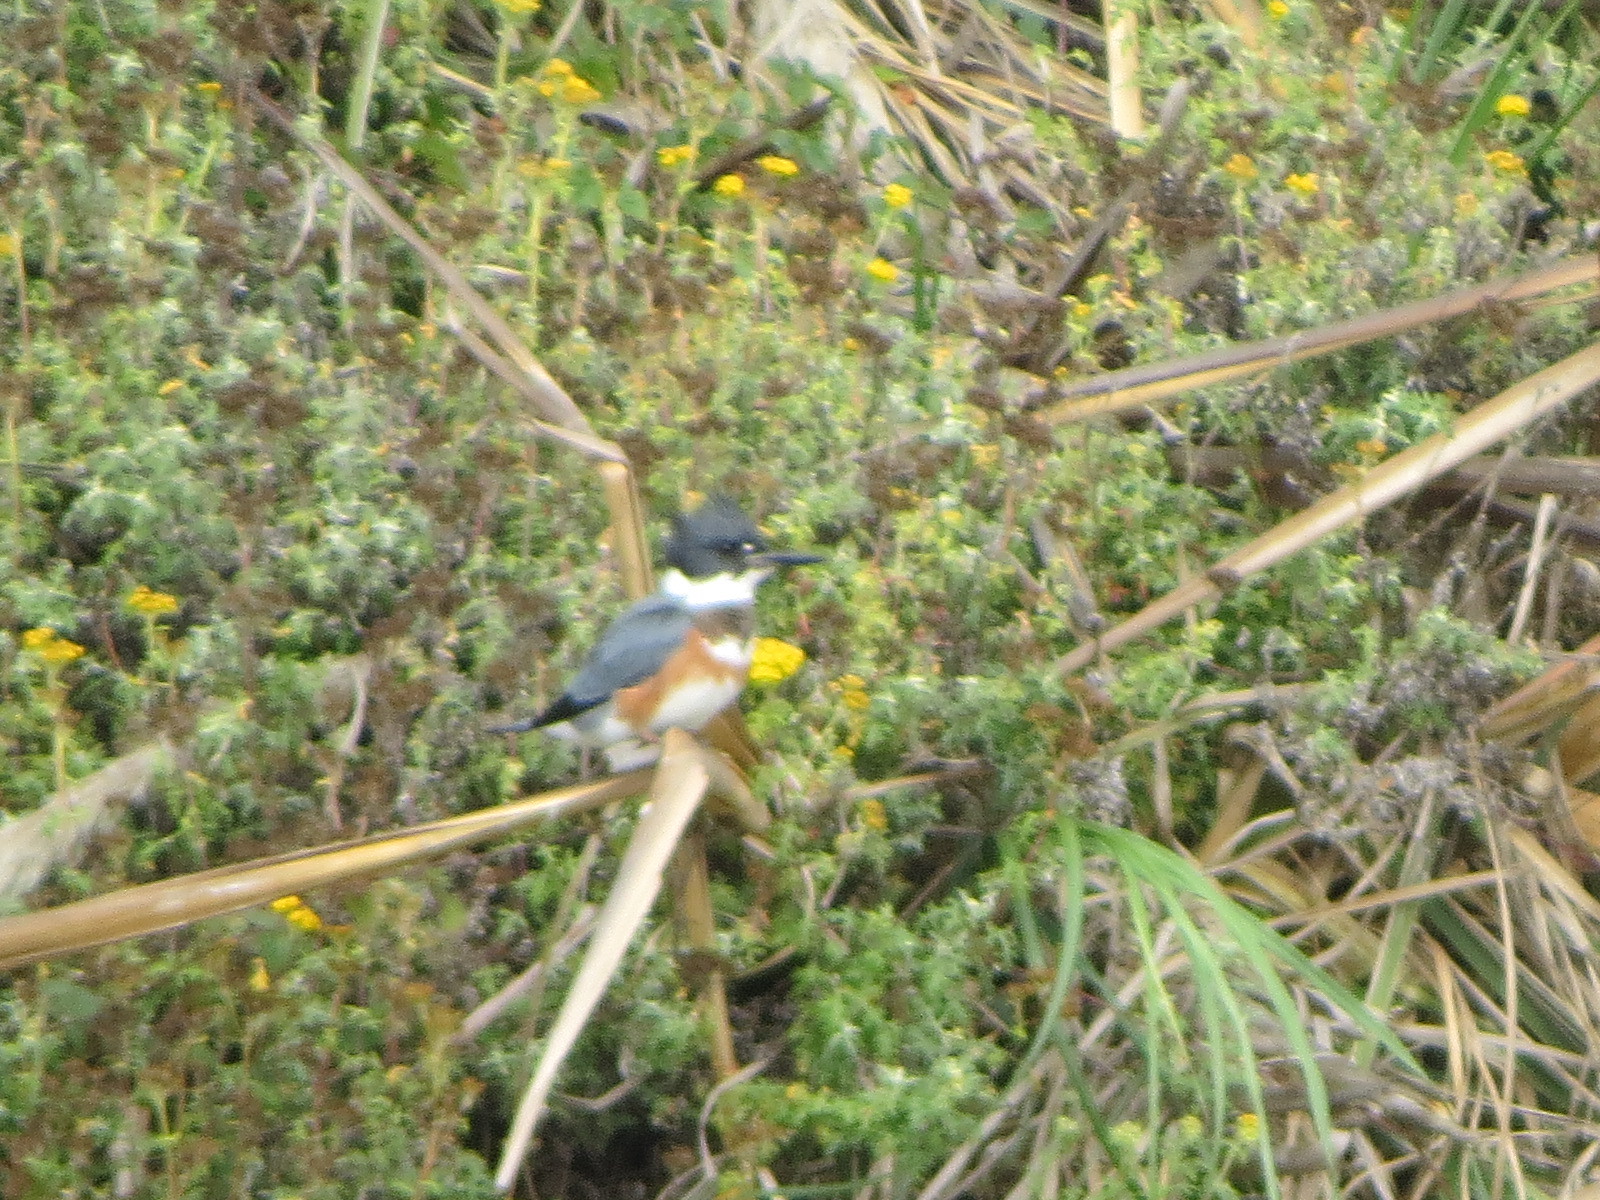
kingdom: Animalia
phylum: Chordata
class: Aves
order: Coraciiformes
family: Alcedinidae
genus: Megaceryle
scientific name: Megaceryle alcyon
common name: Belted kingfisher
